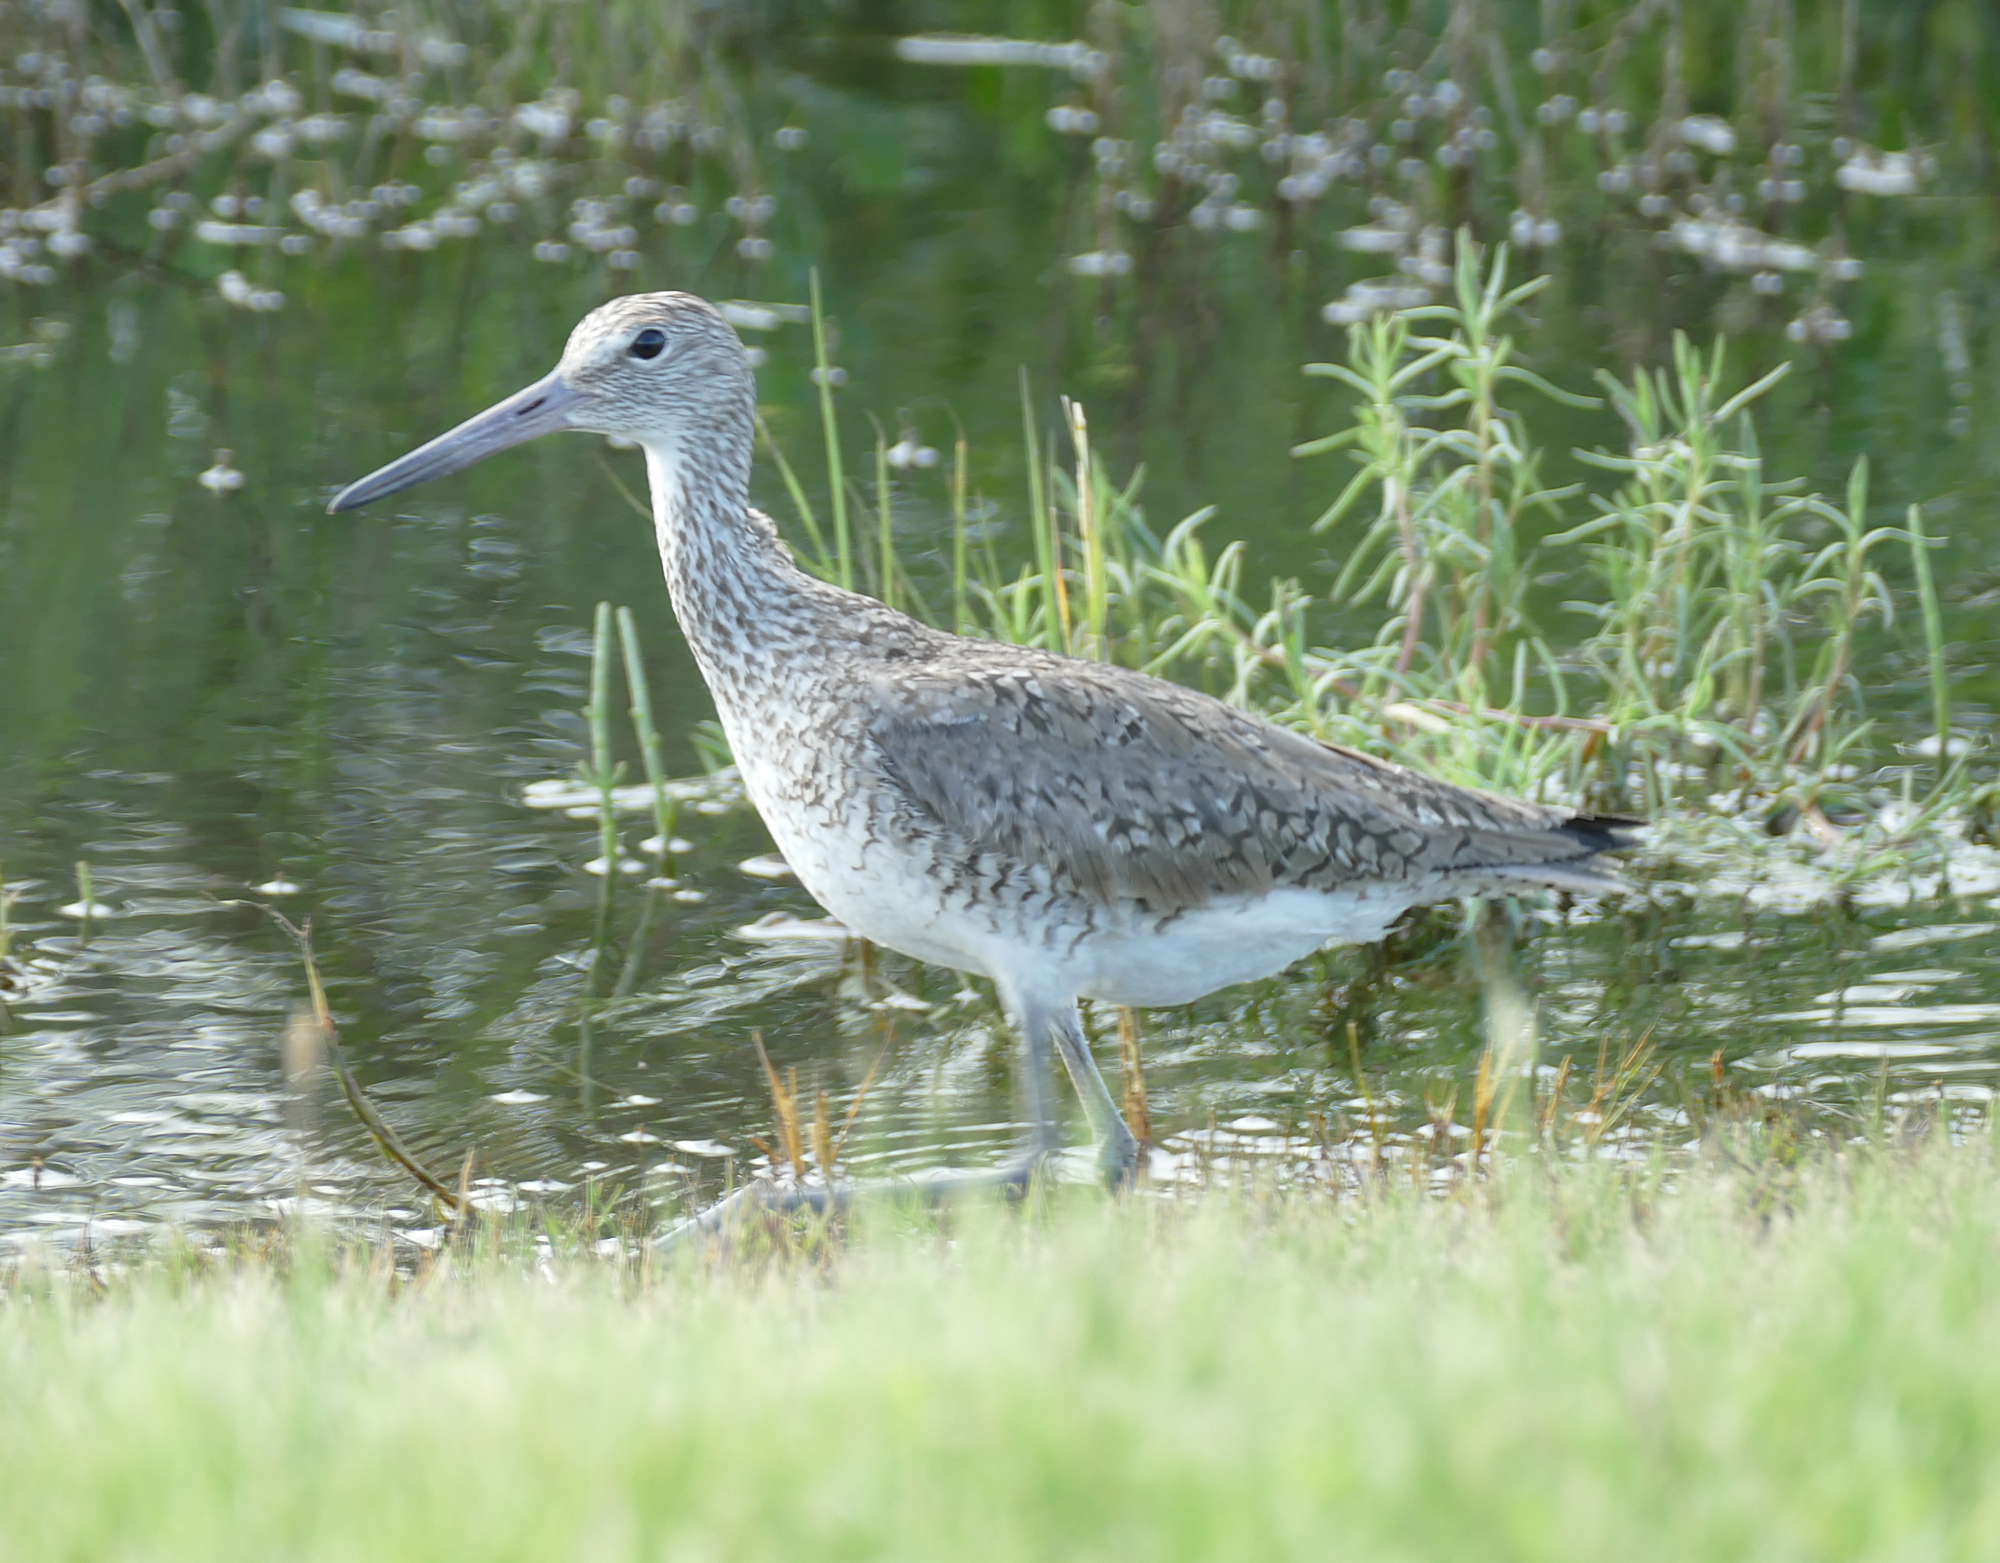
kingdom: Animalia
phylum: Chordata
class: Aves
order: Charadriiformes
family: Scolopacidae
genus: Tringa
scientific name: Tringa semipalmata
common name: Willet
